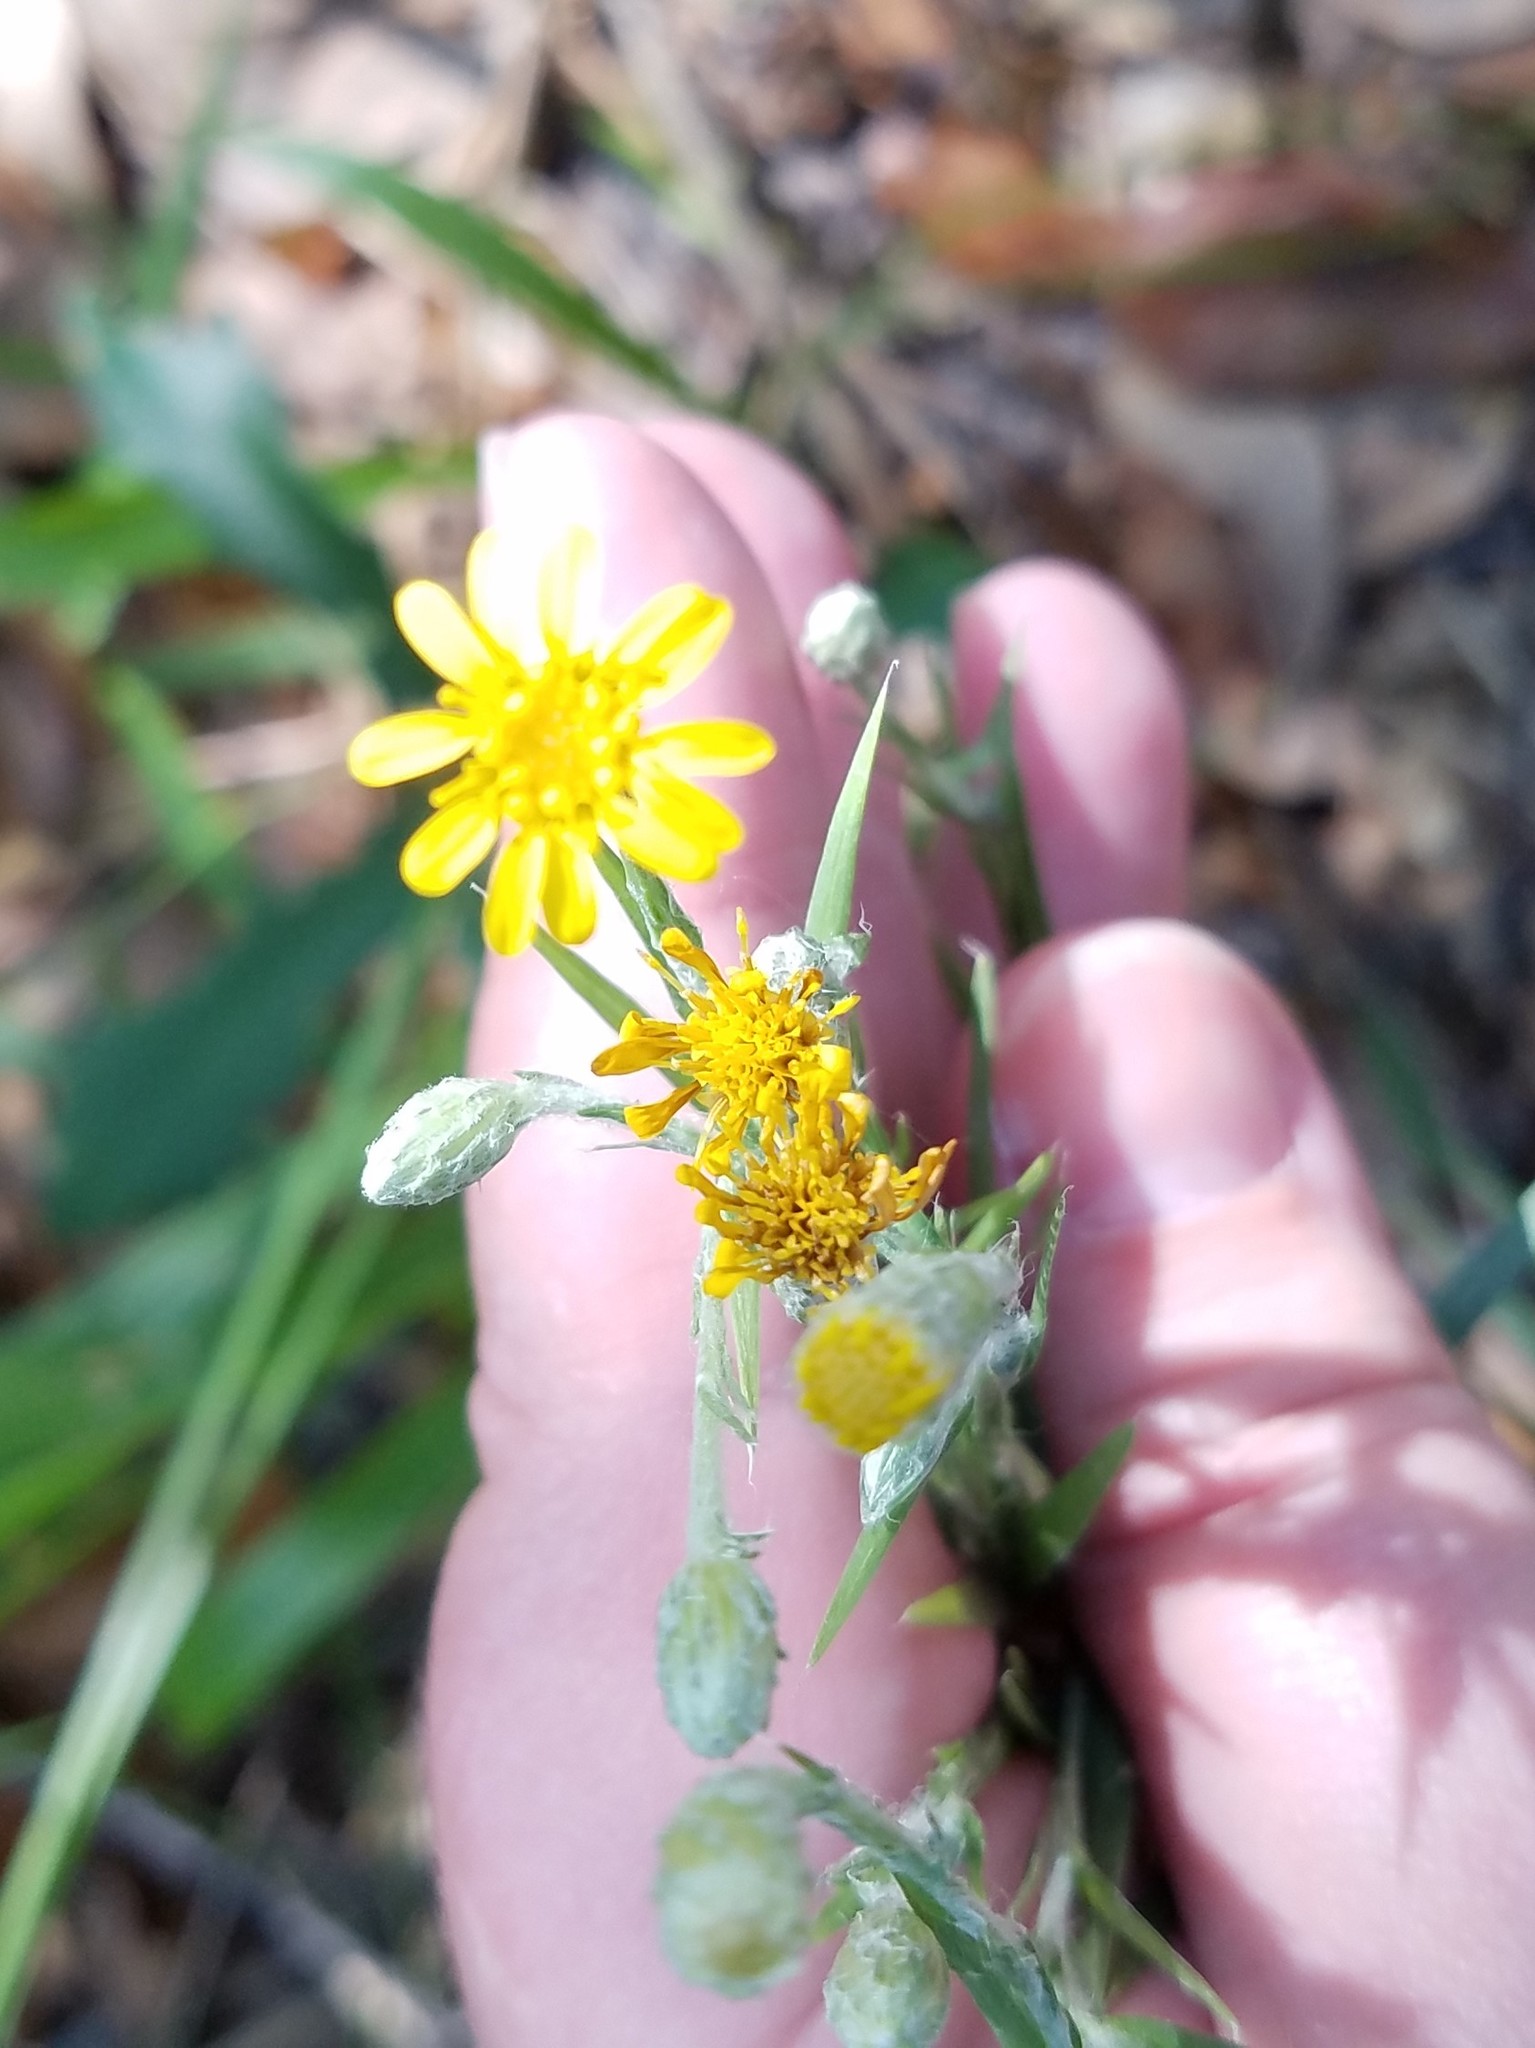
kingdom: Plantae
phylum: Tracheophyta
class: Magnoliopsida
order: Asterales
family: Asteraceae
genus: Pityopsis
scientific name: Pityopsis graminifolia
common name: Grass-leaf golden-aster
